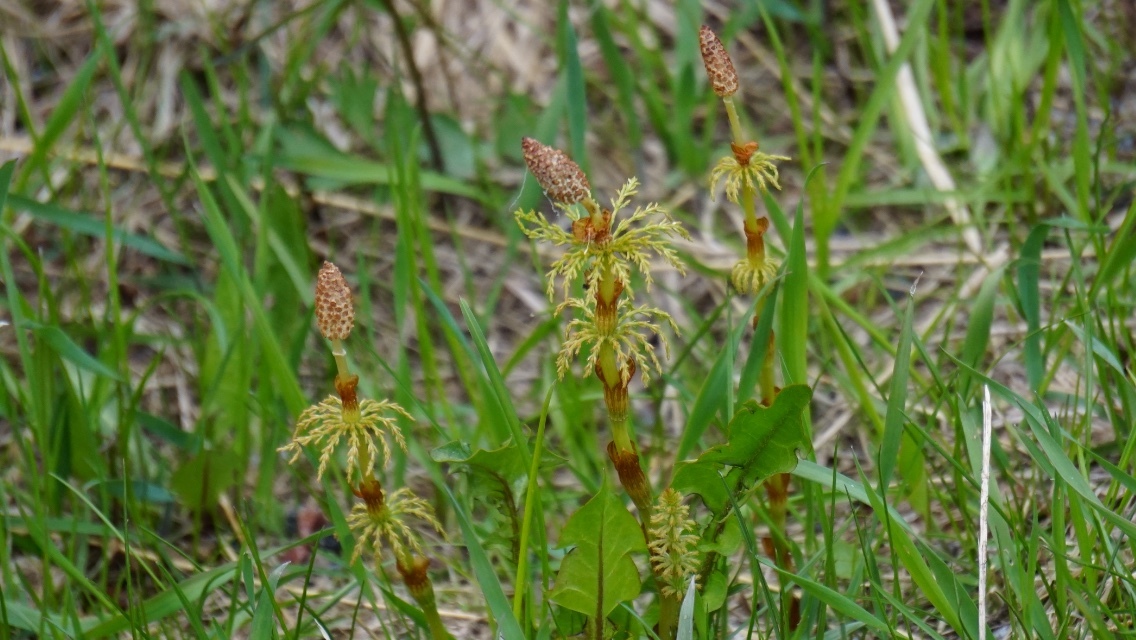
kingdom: Plantae
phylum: Tracheophyta
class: Polypodiopsida
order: Equisetales
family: Equisetaceae
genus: Equisetum
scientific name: Equisetum sylvaticum
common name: Wood horsetail
